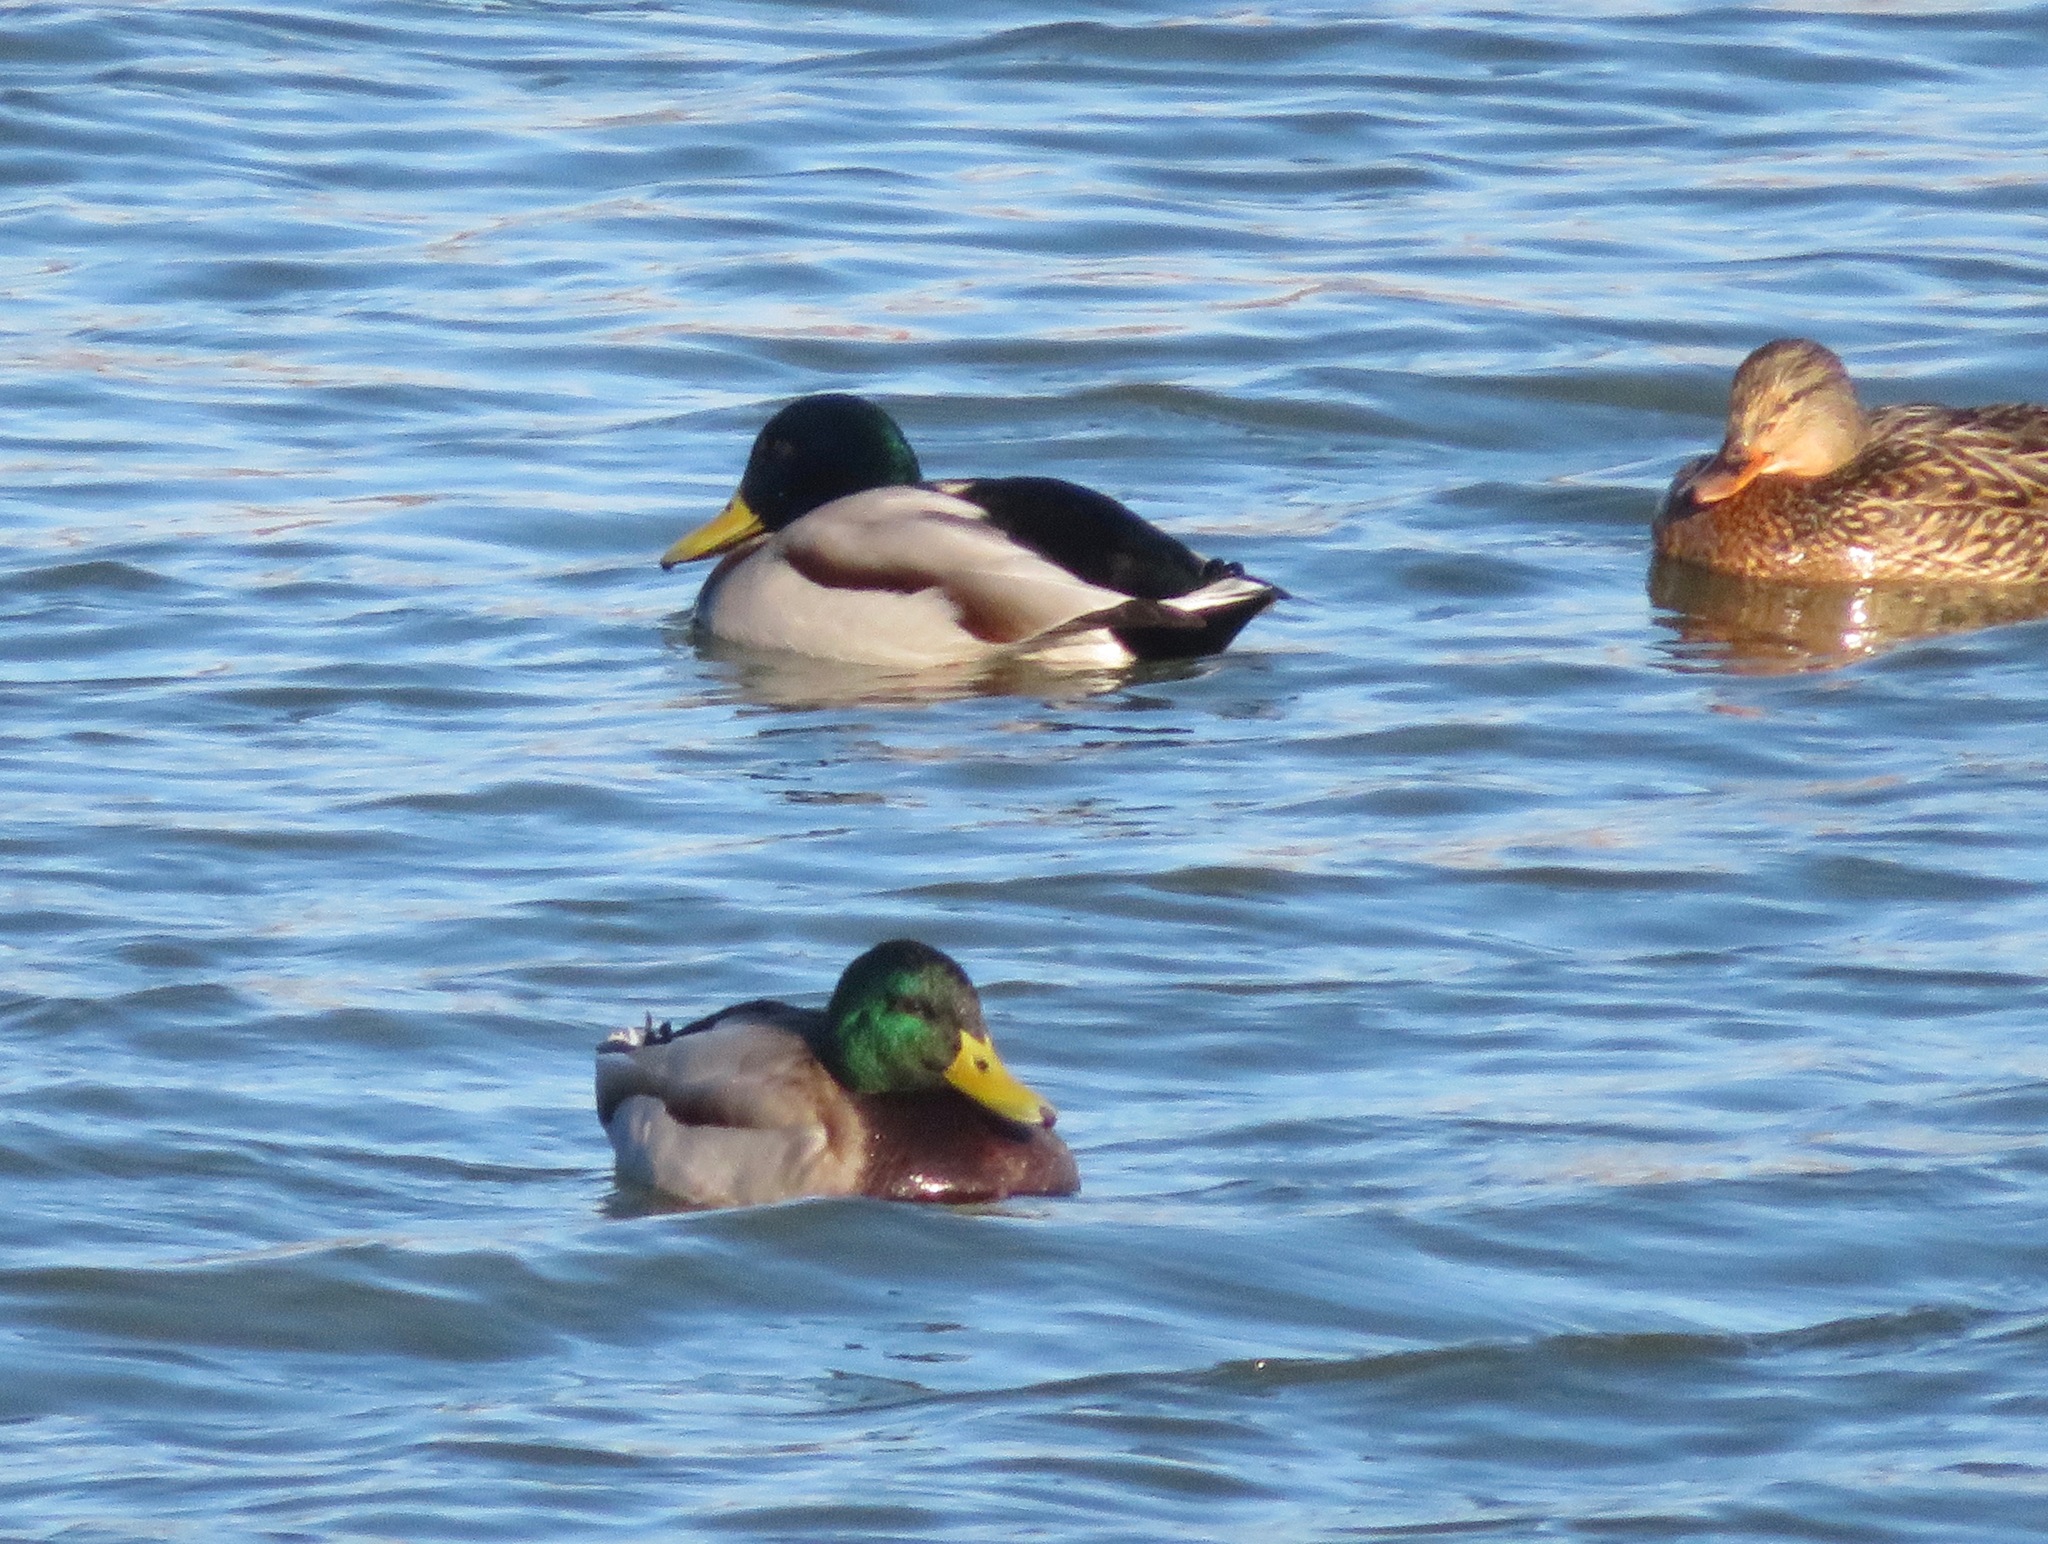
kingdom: Animalia
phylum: Chordata
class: Aves
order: Anseriformes
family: Anatidae
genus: Anas
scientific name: Anas platyrhynchos
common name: Mallard
